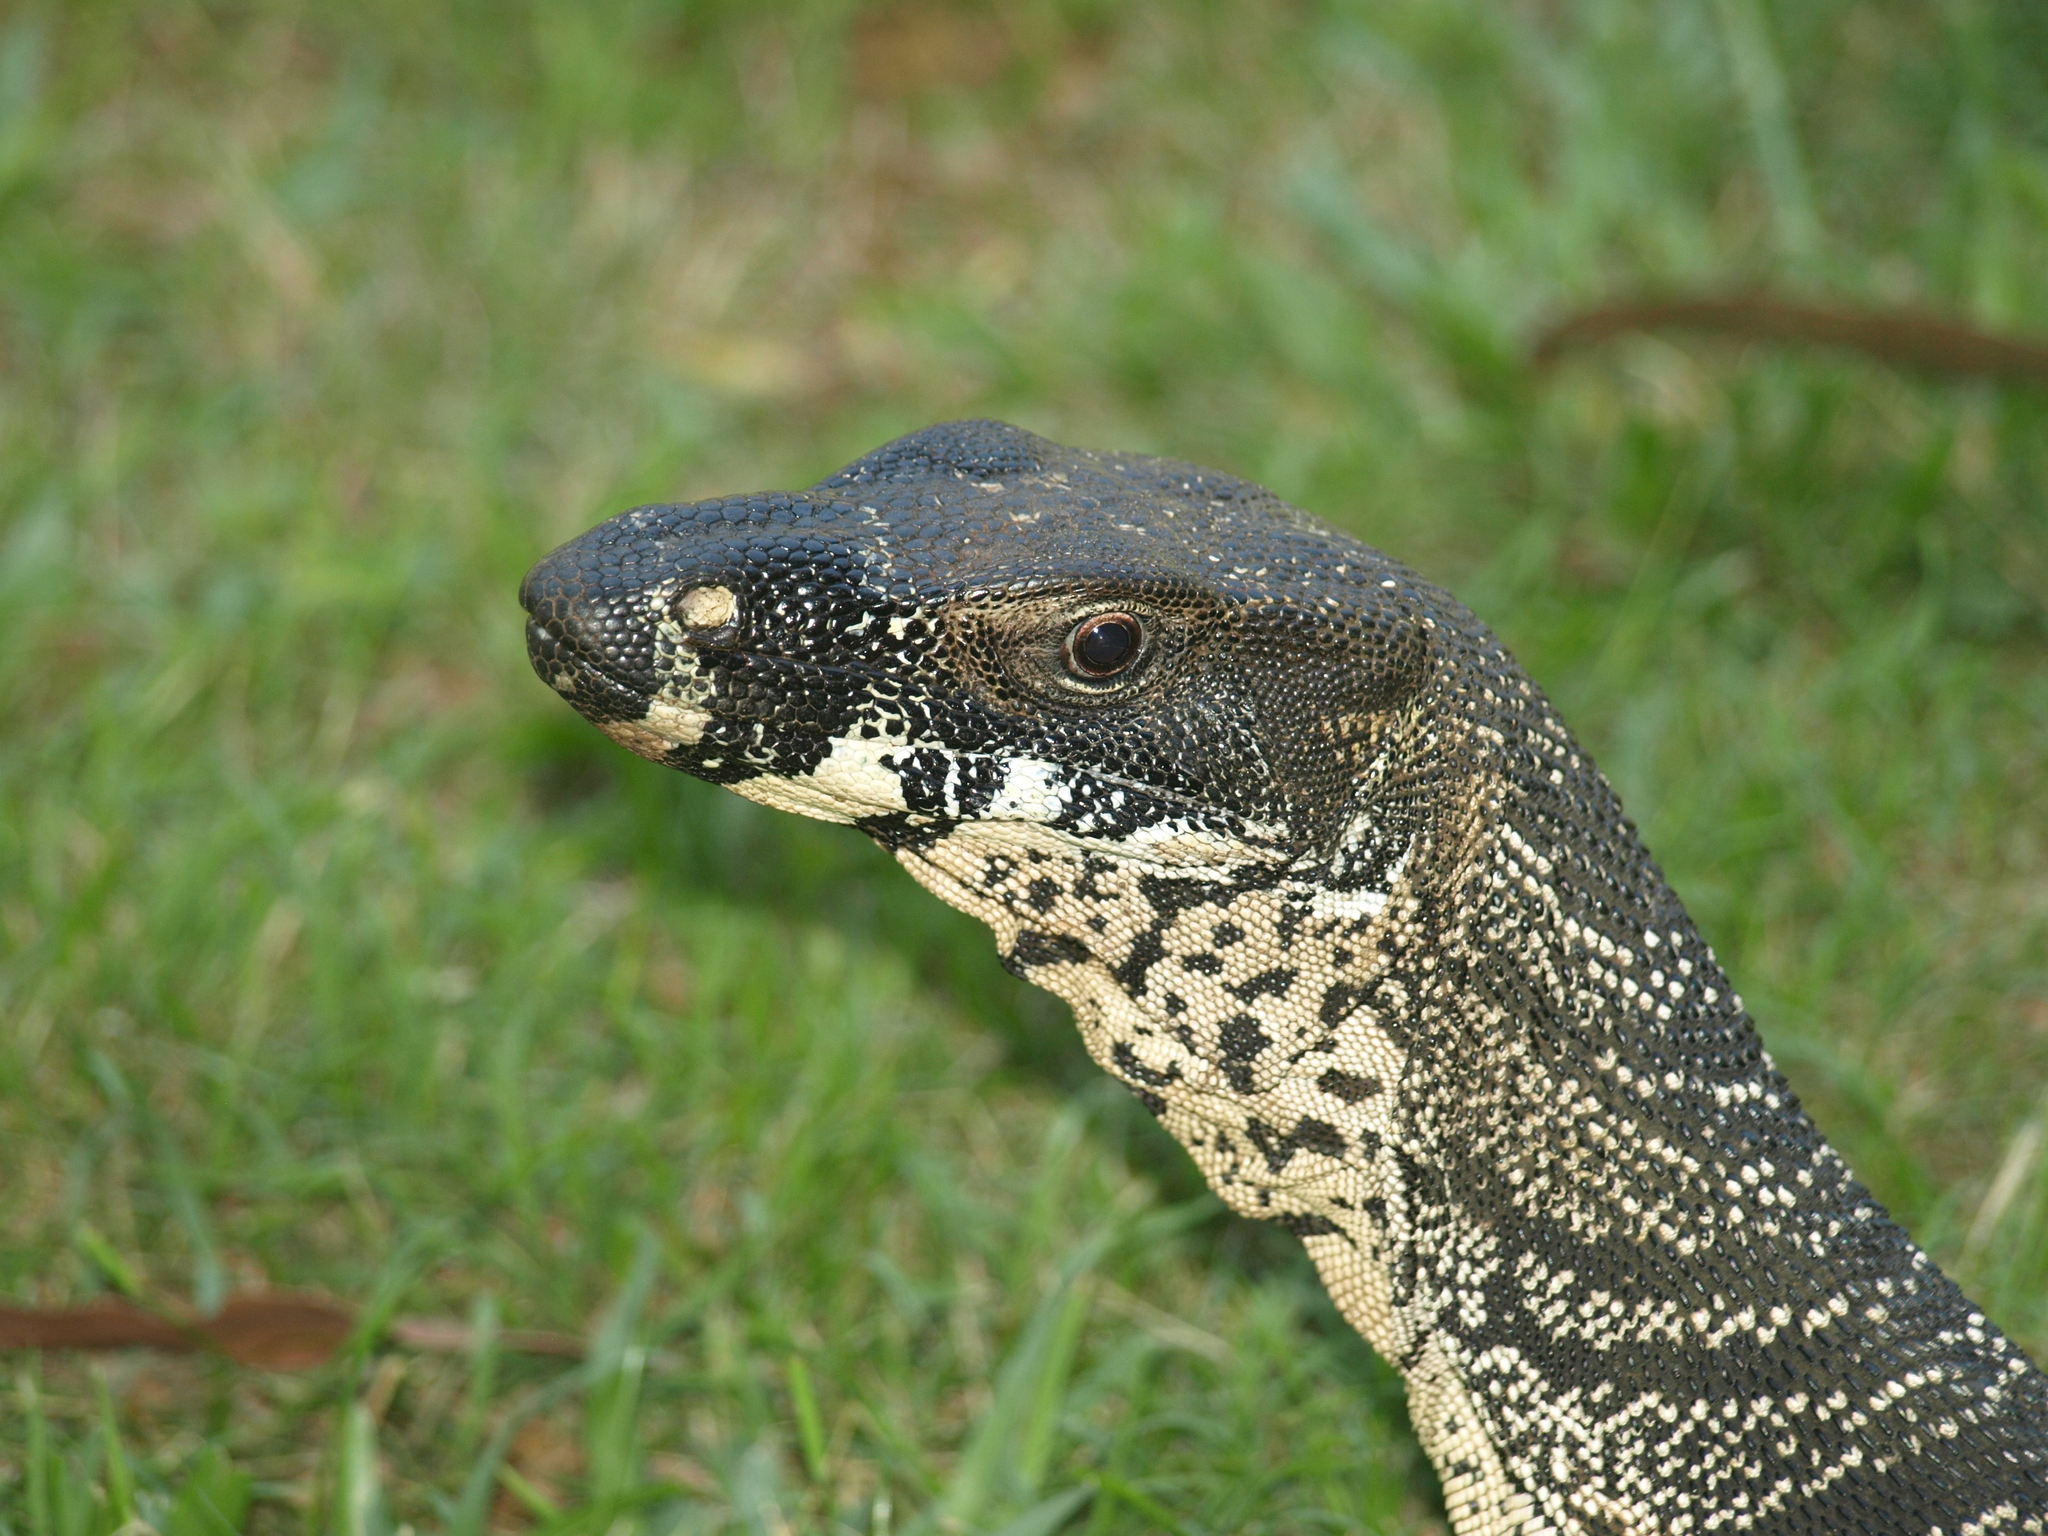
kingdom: Animalia
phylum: Chordata
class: Squamata
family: Varanidae
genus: Varanus
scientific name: Varanus varius
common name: Lace monitor
